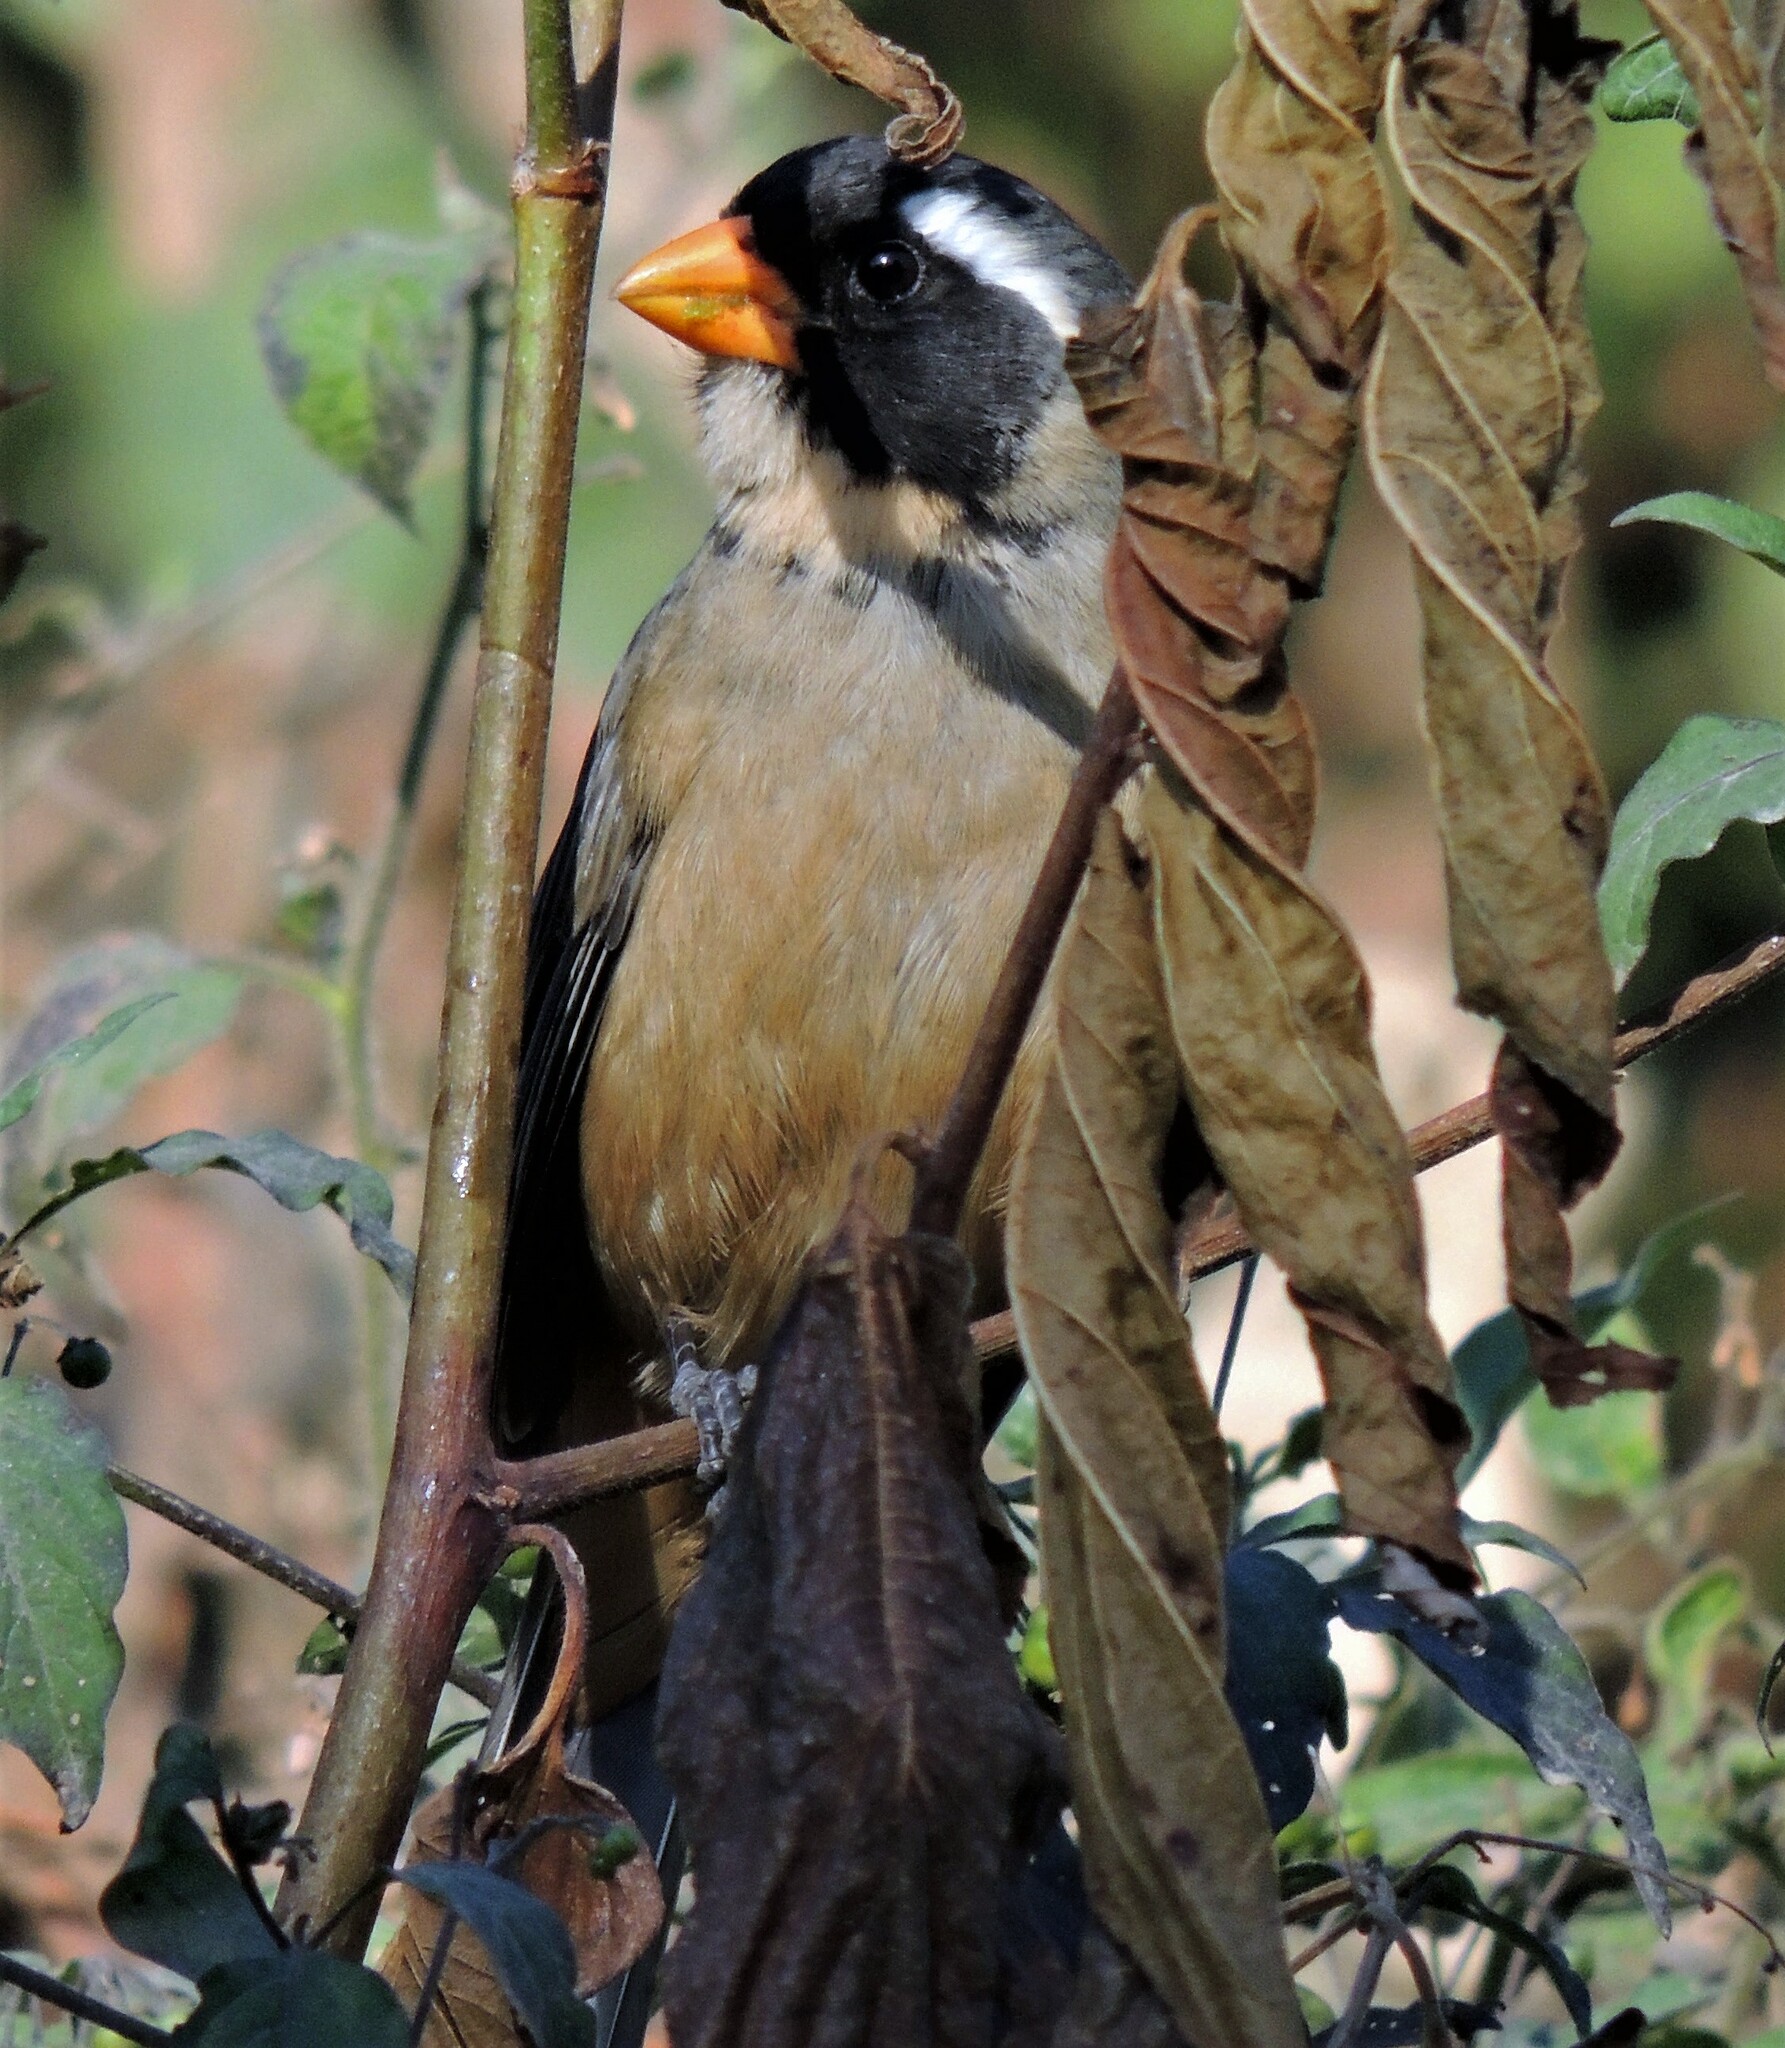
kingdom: Animalia
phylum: Chordata
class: Aves
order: Passeriformes
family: Thraupidae
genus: Saltator
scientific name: Saltator aurantiirostris
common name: Golden-billed saltator
